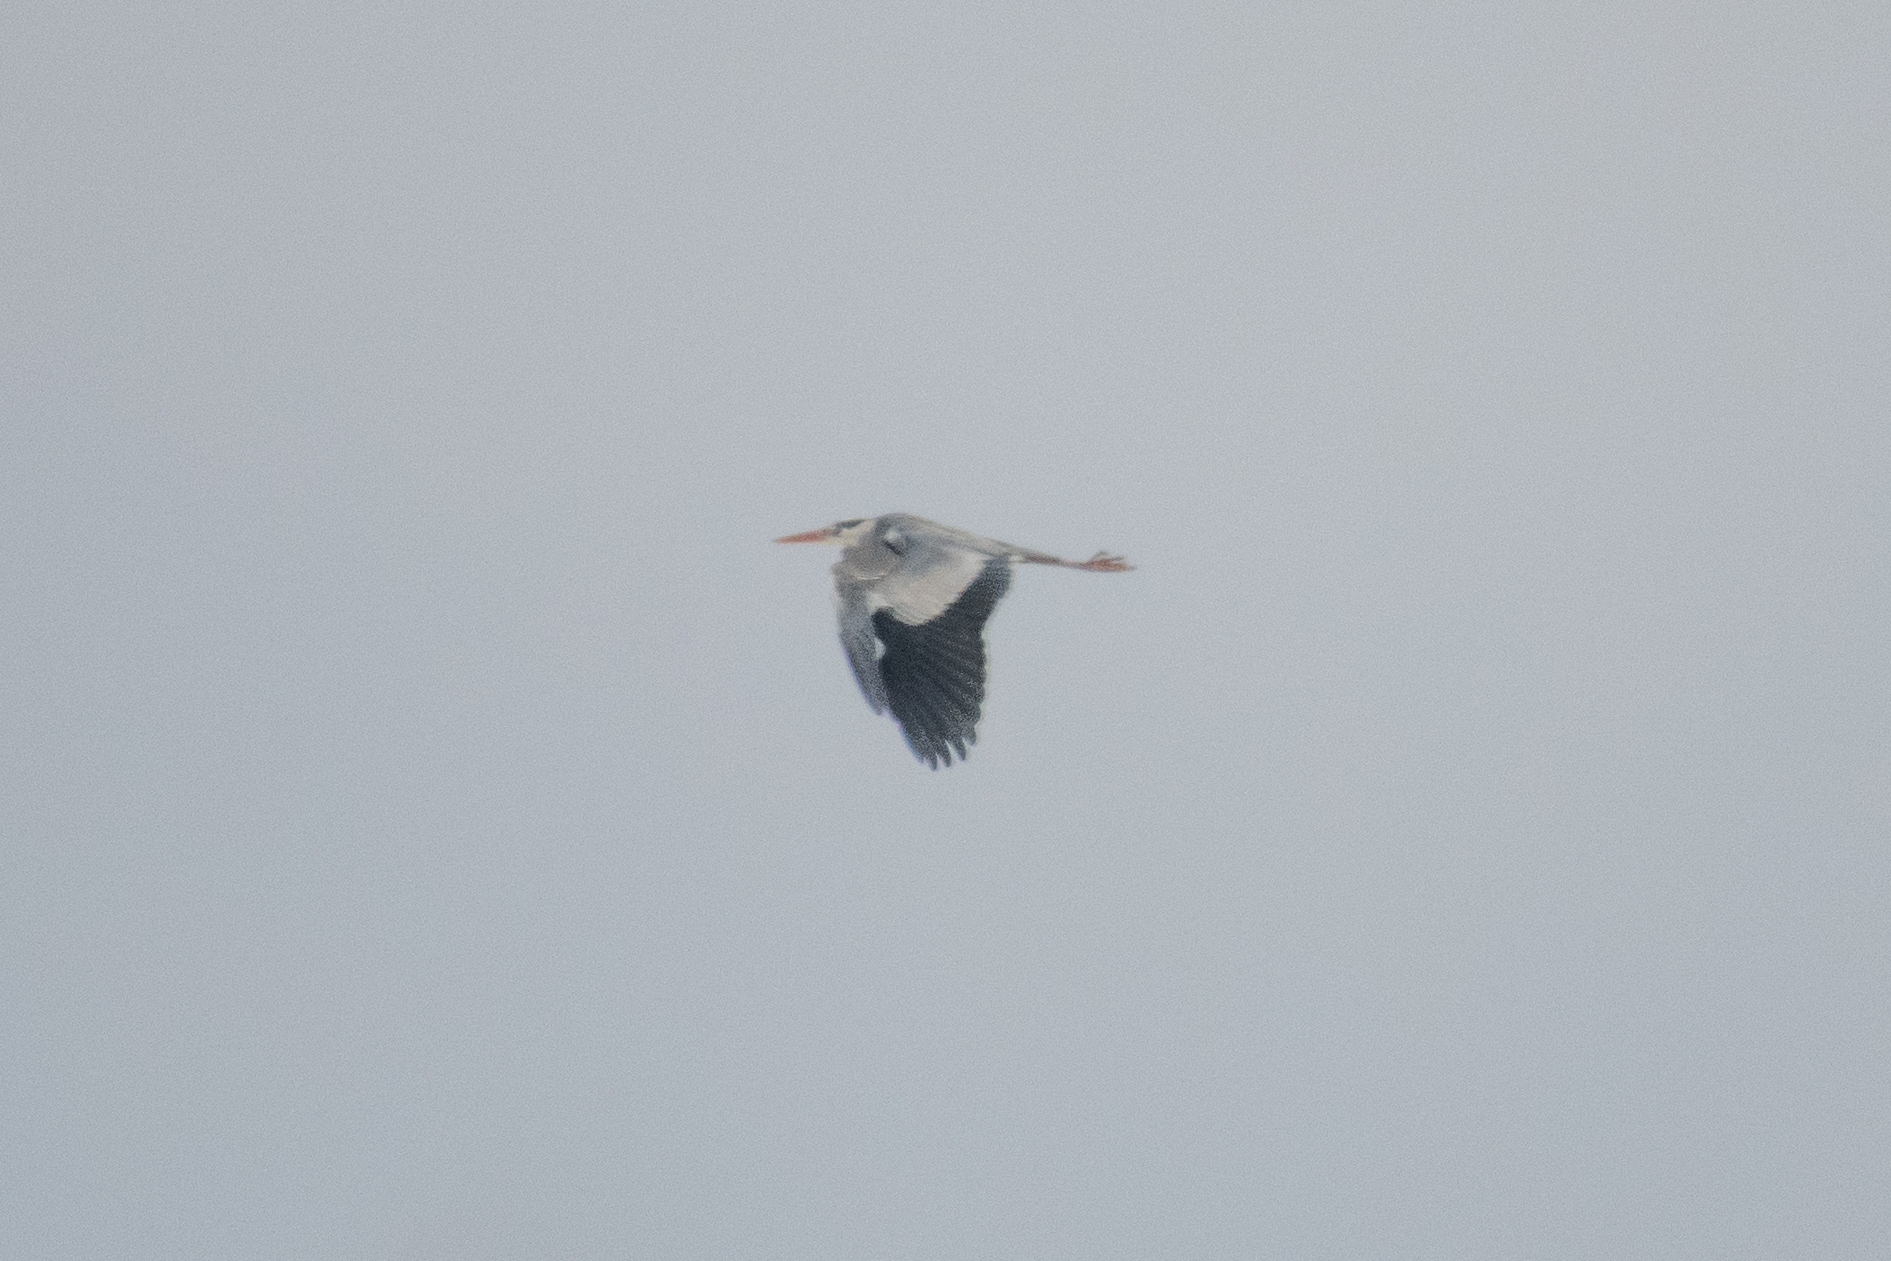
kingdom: Animalia
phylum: Chordata
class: Aves
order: Pelecaniformes
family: Ardeidae
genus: Ardea
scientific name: Ardea cinerea
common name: Grey heron
